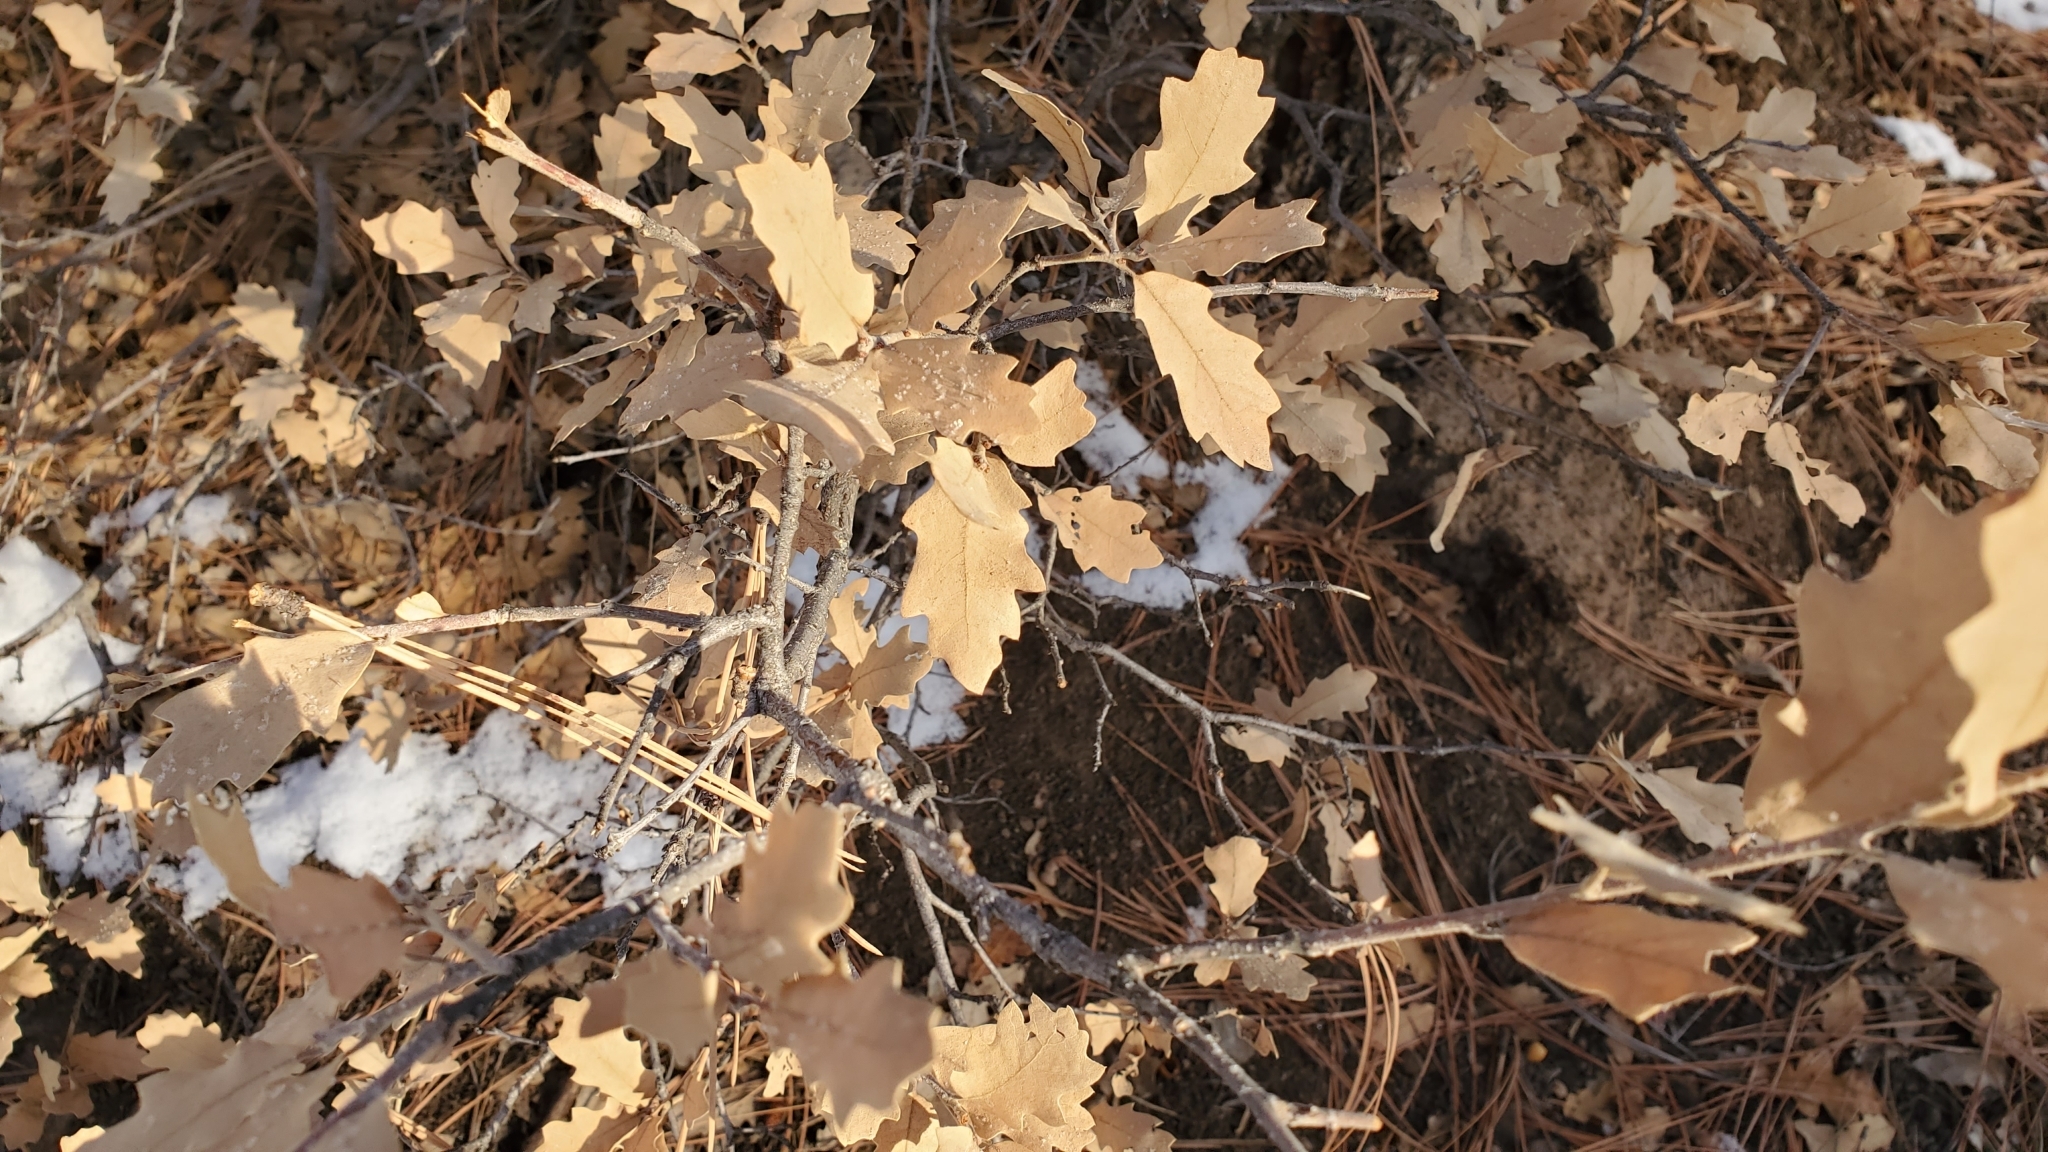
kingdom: Plantae
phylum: Tracheophyta
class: Magnoliopsida
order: Fagales
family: Fagaceae
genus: Quercus
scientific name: Quercus undulata
